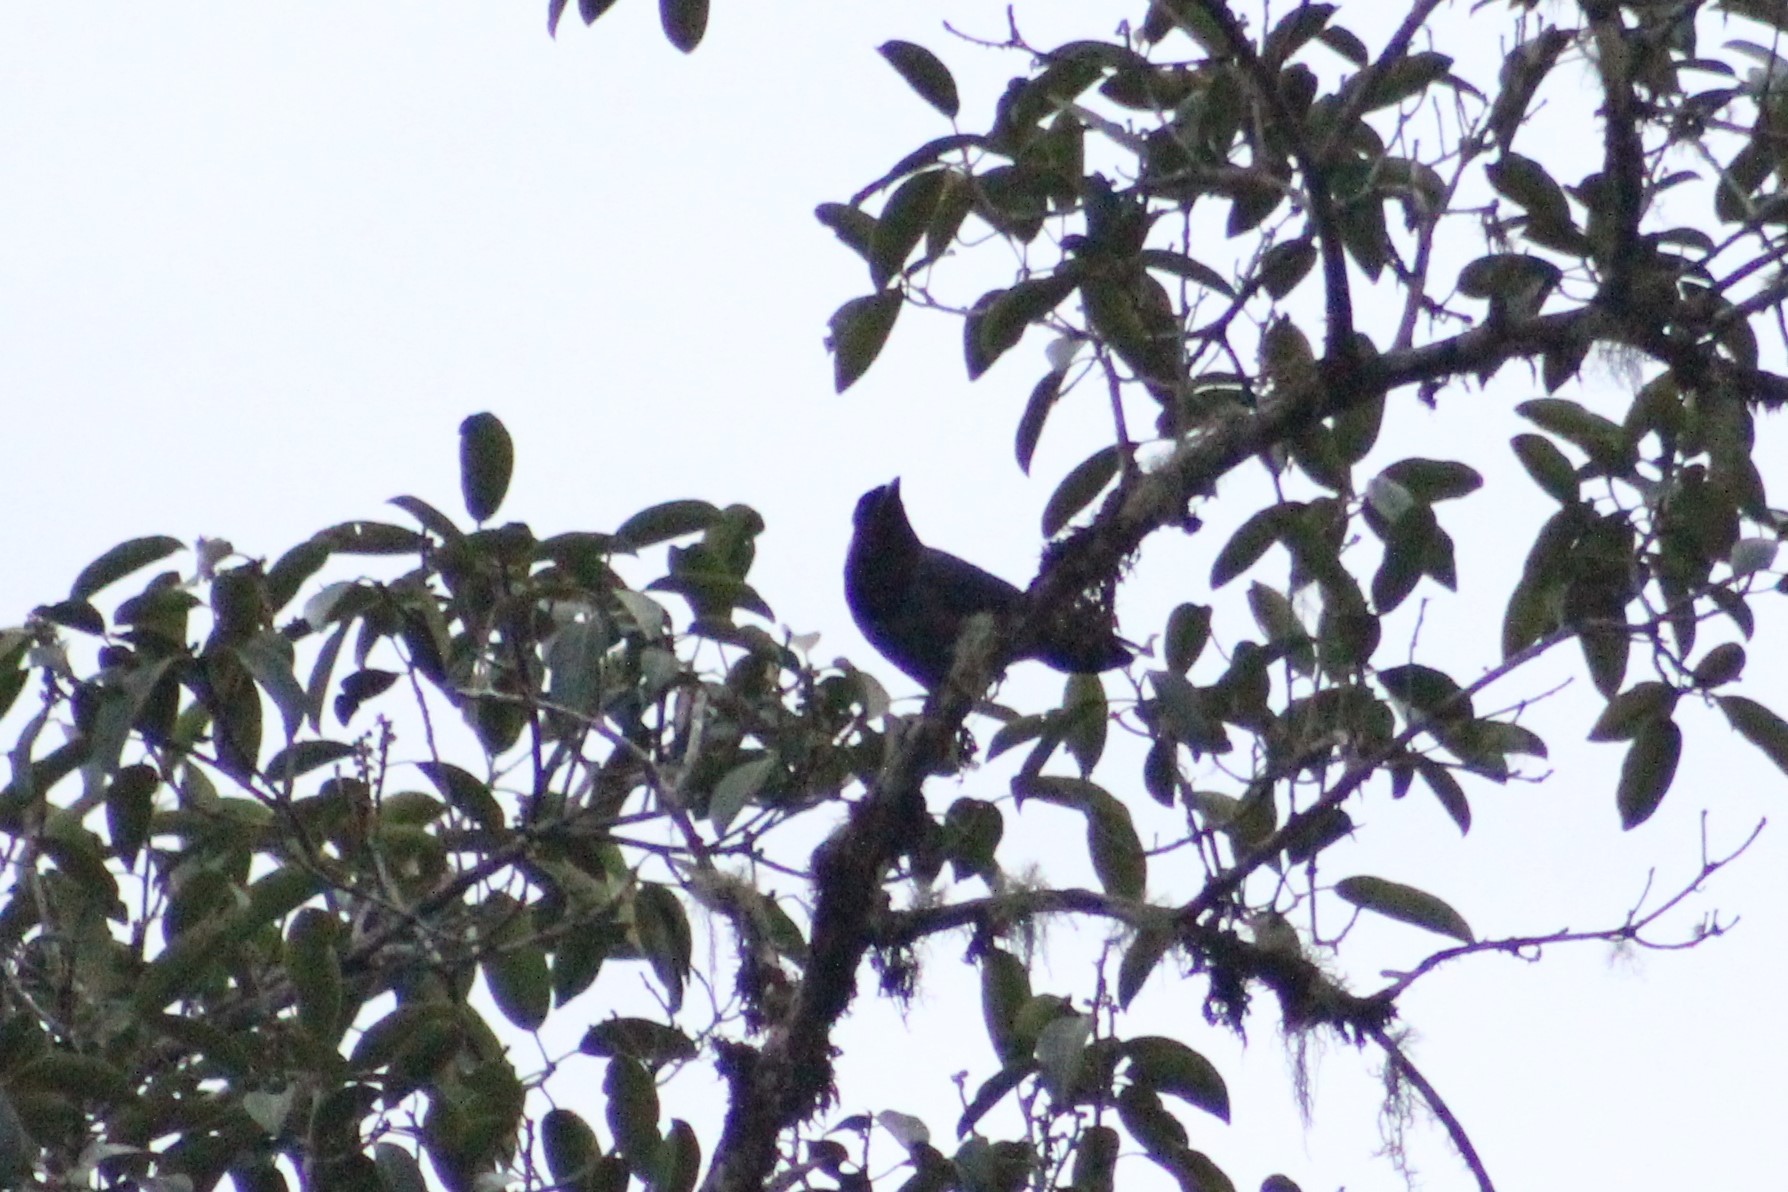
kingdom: Animalia
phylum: Chordata
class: Aves
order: Passeriformes
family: Corvidae
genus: Cyanocorax
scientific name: Cyanocorax violaceus
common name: Violaceous jay
